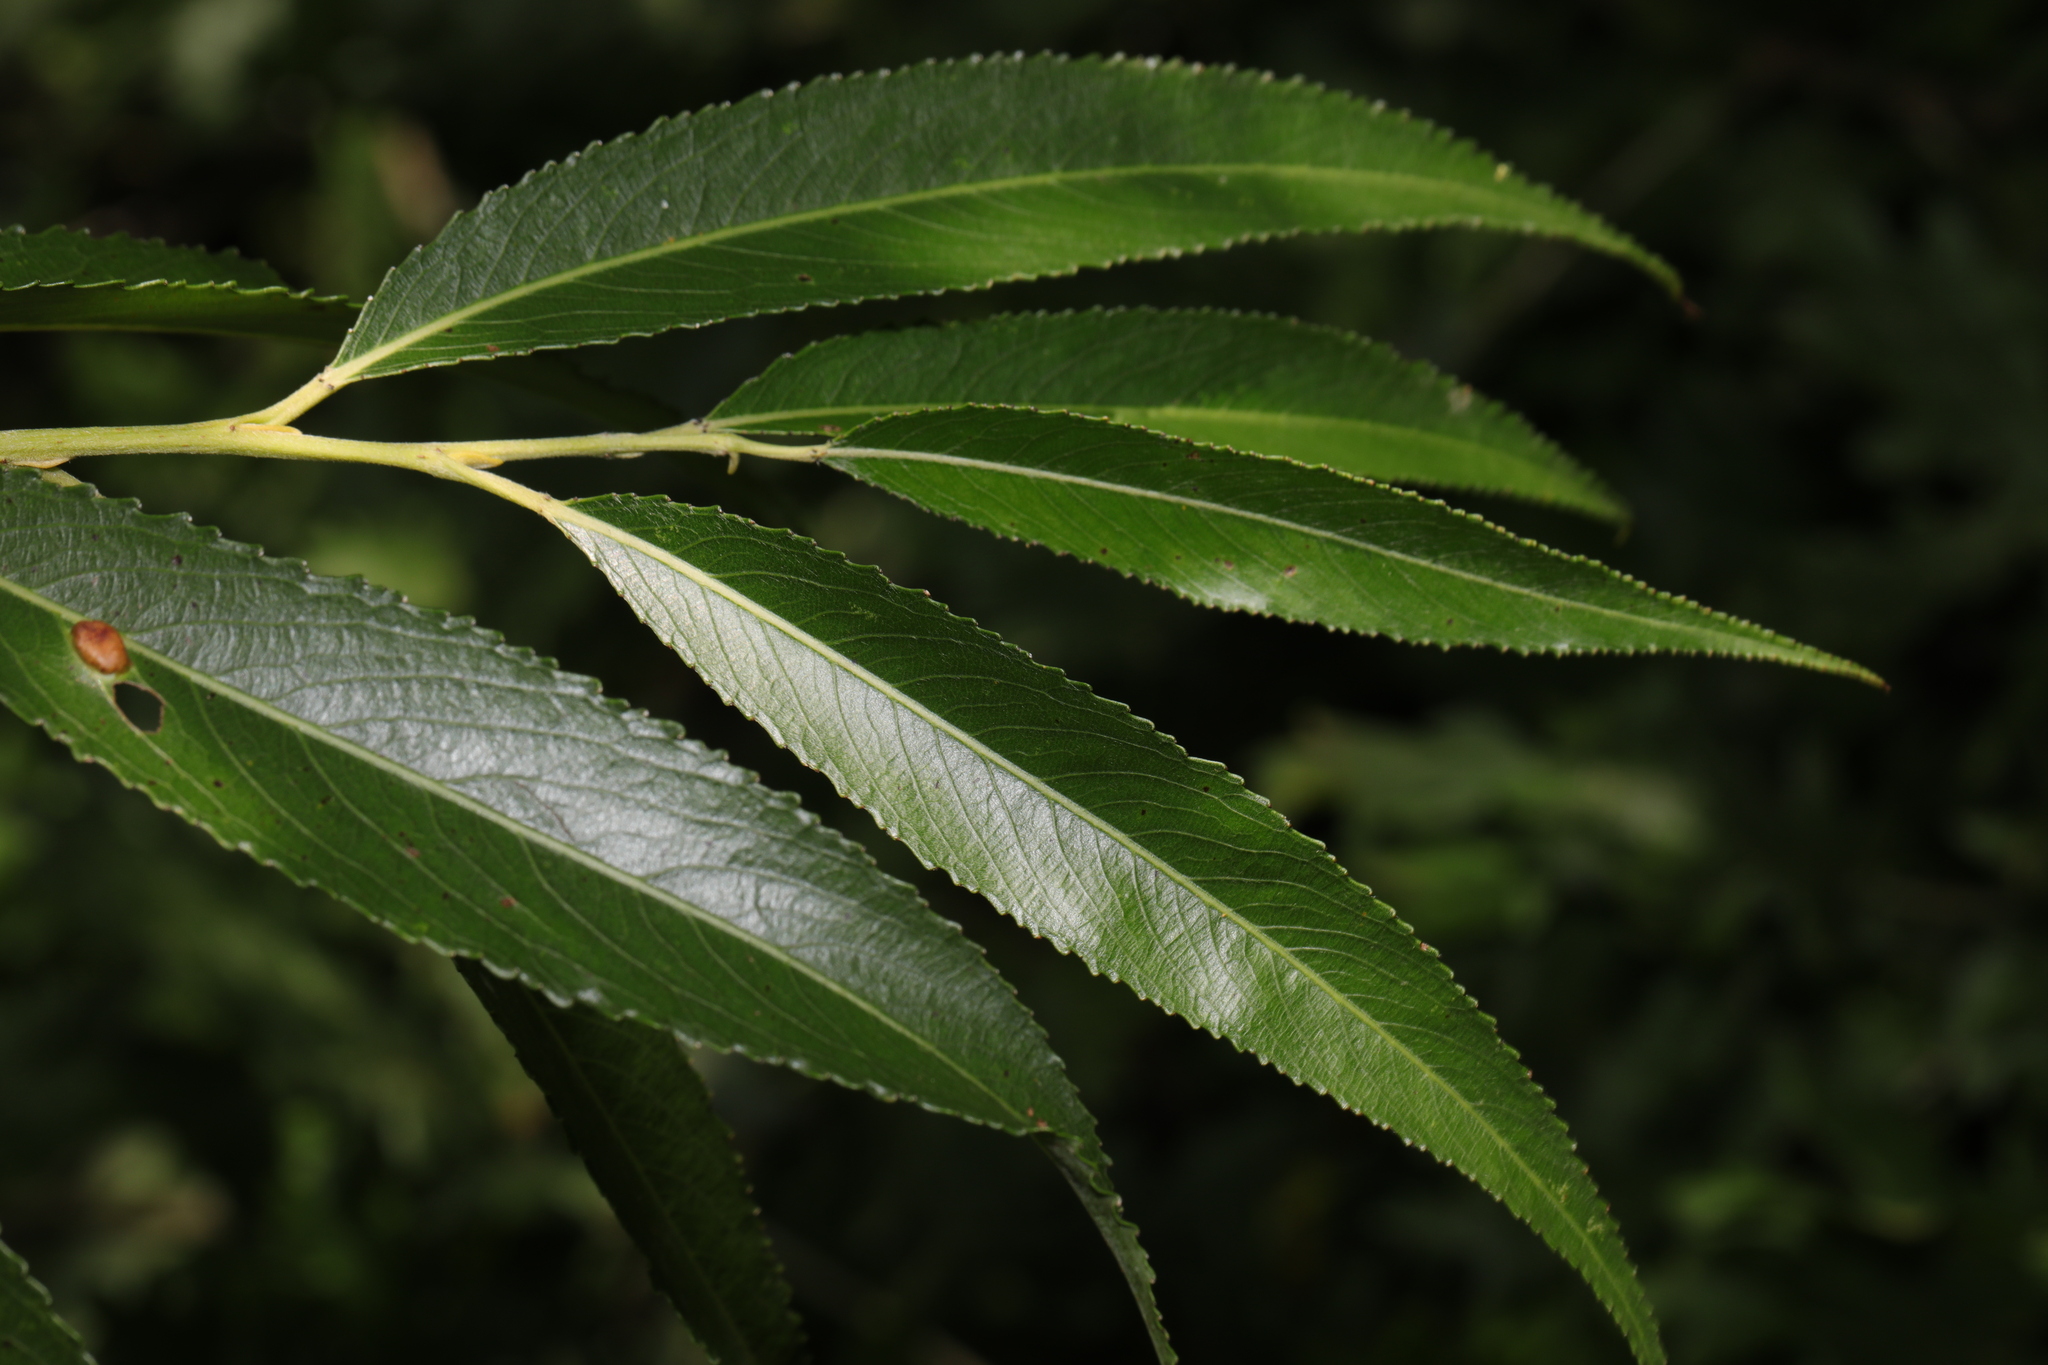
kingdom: Plantae
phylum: Tracheophyta
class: Magnoliopsida
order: Malpighiales
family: Salicaceae
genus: Salix
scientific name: Salix fragilis
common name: Crack willow
